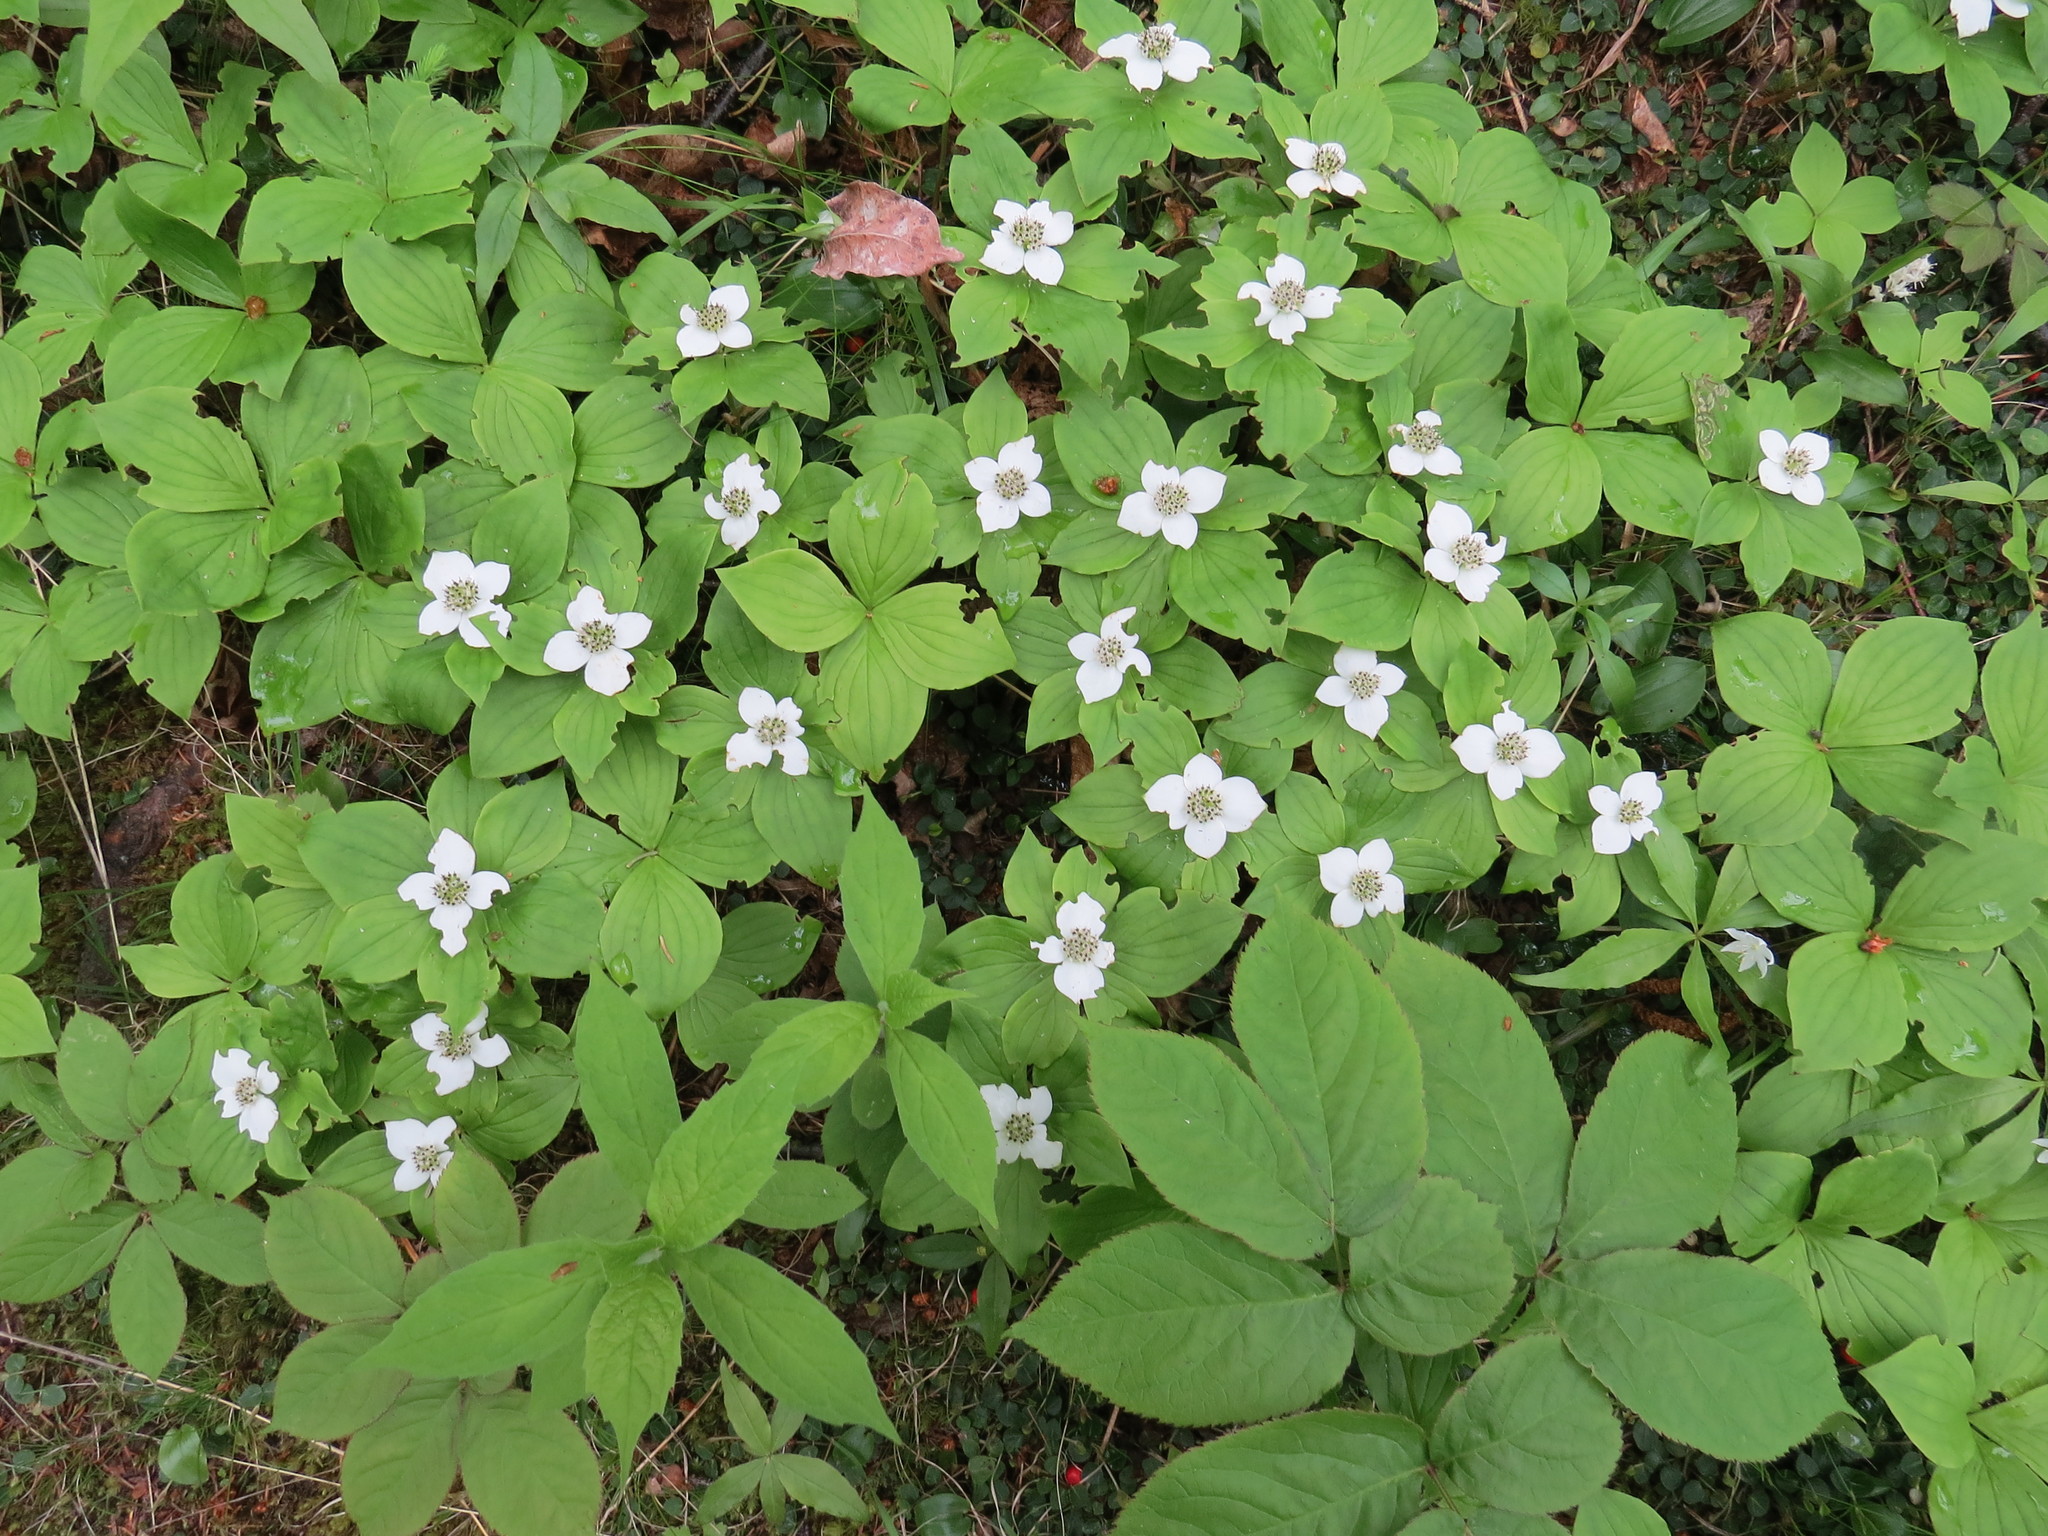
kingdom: Plantae
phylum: Tracheophyta
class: Magnoliopsida
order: Cornales
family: Cornaceae
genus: Cornus
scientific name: Cornus canadensis
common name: Creeping dogwood
